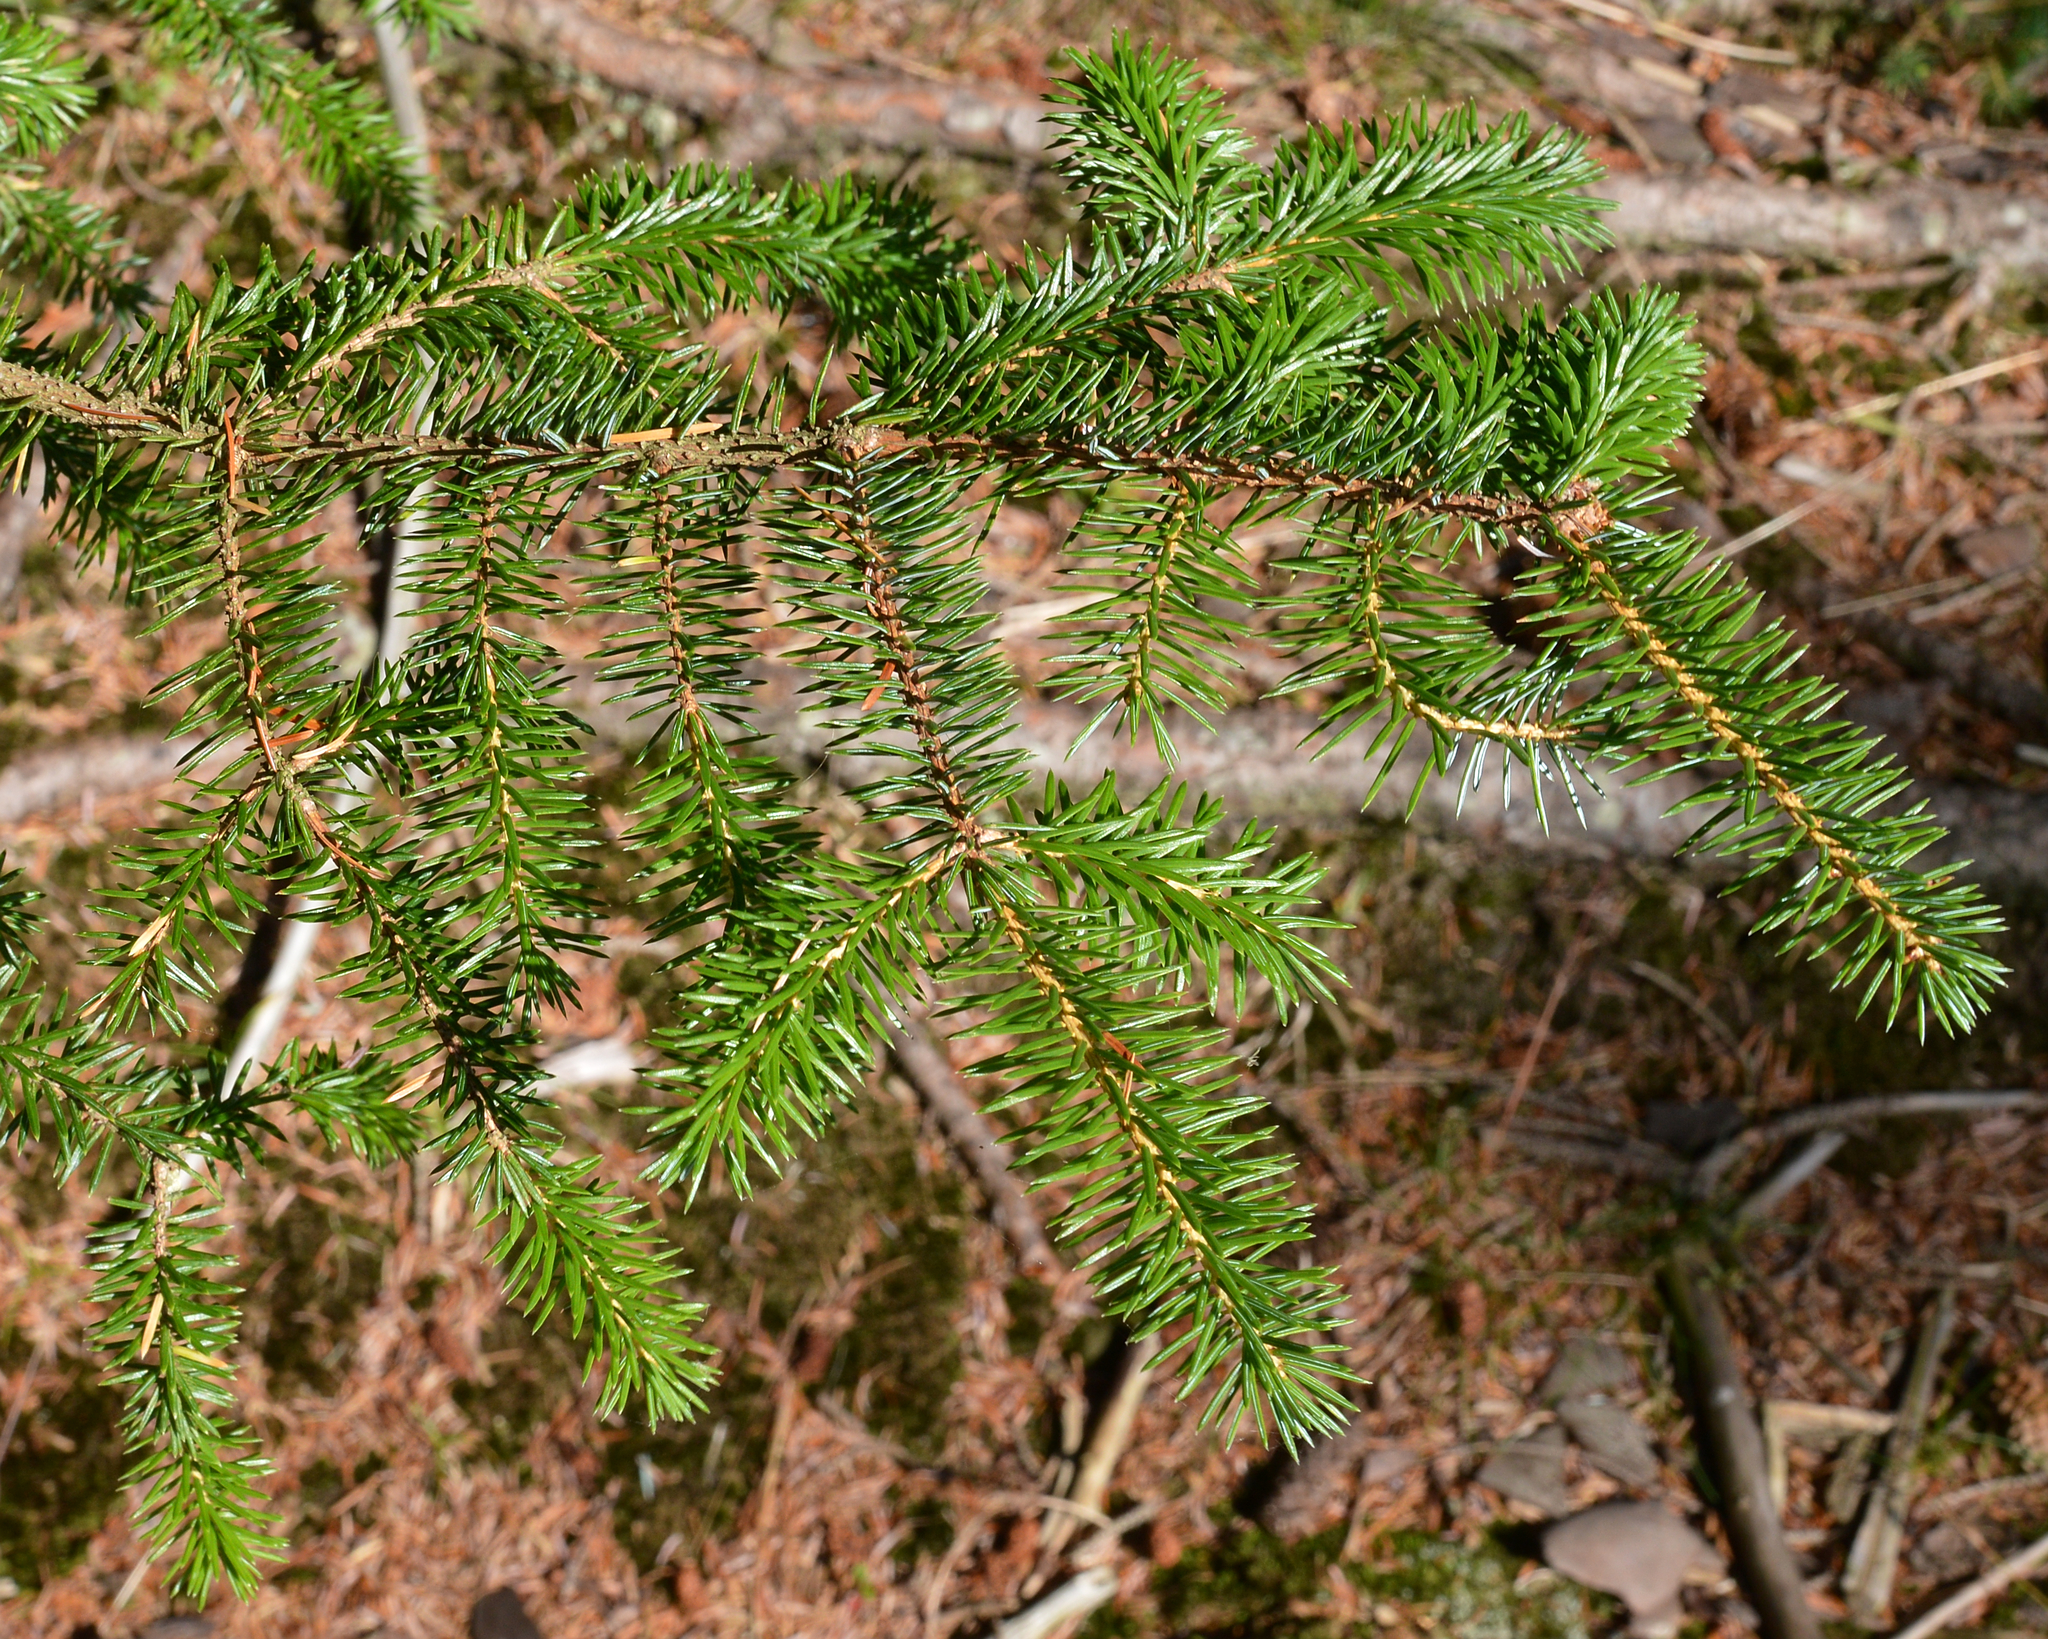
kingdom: Plantae
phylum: Tracheophyta
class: Pinopsida
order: Pinales
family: Pinaceae
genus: Picea
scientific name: Picea abies
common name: Norway spruce
